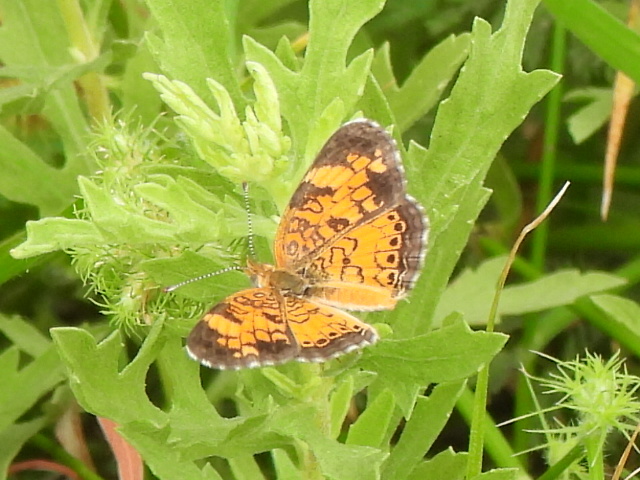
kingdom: Animalia
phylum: Arthropoda
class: Insecta
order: Lepidoptera
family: Nymphalidae
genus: Phyciodes
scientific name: Phyciodes tharos
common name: Pearl crescent
